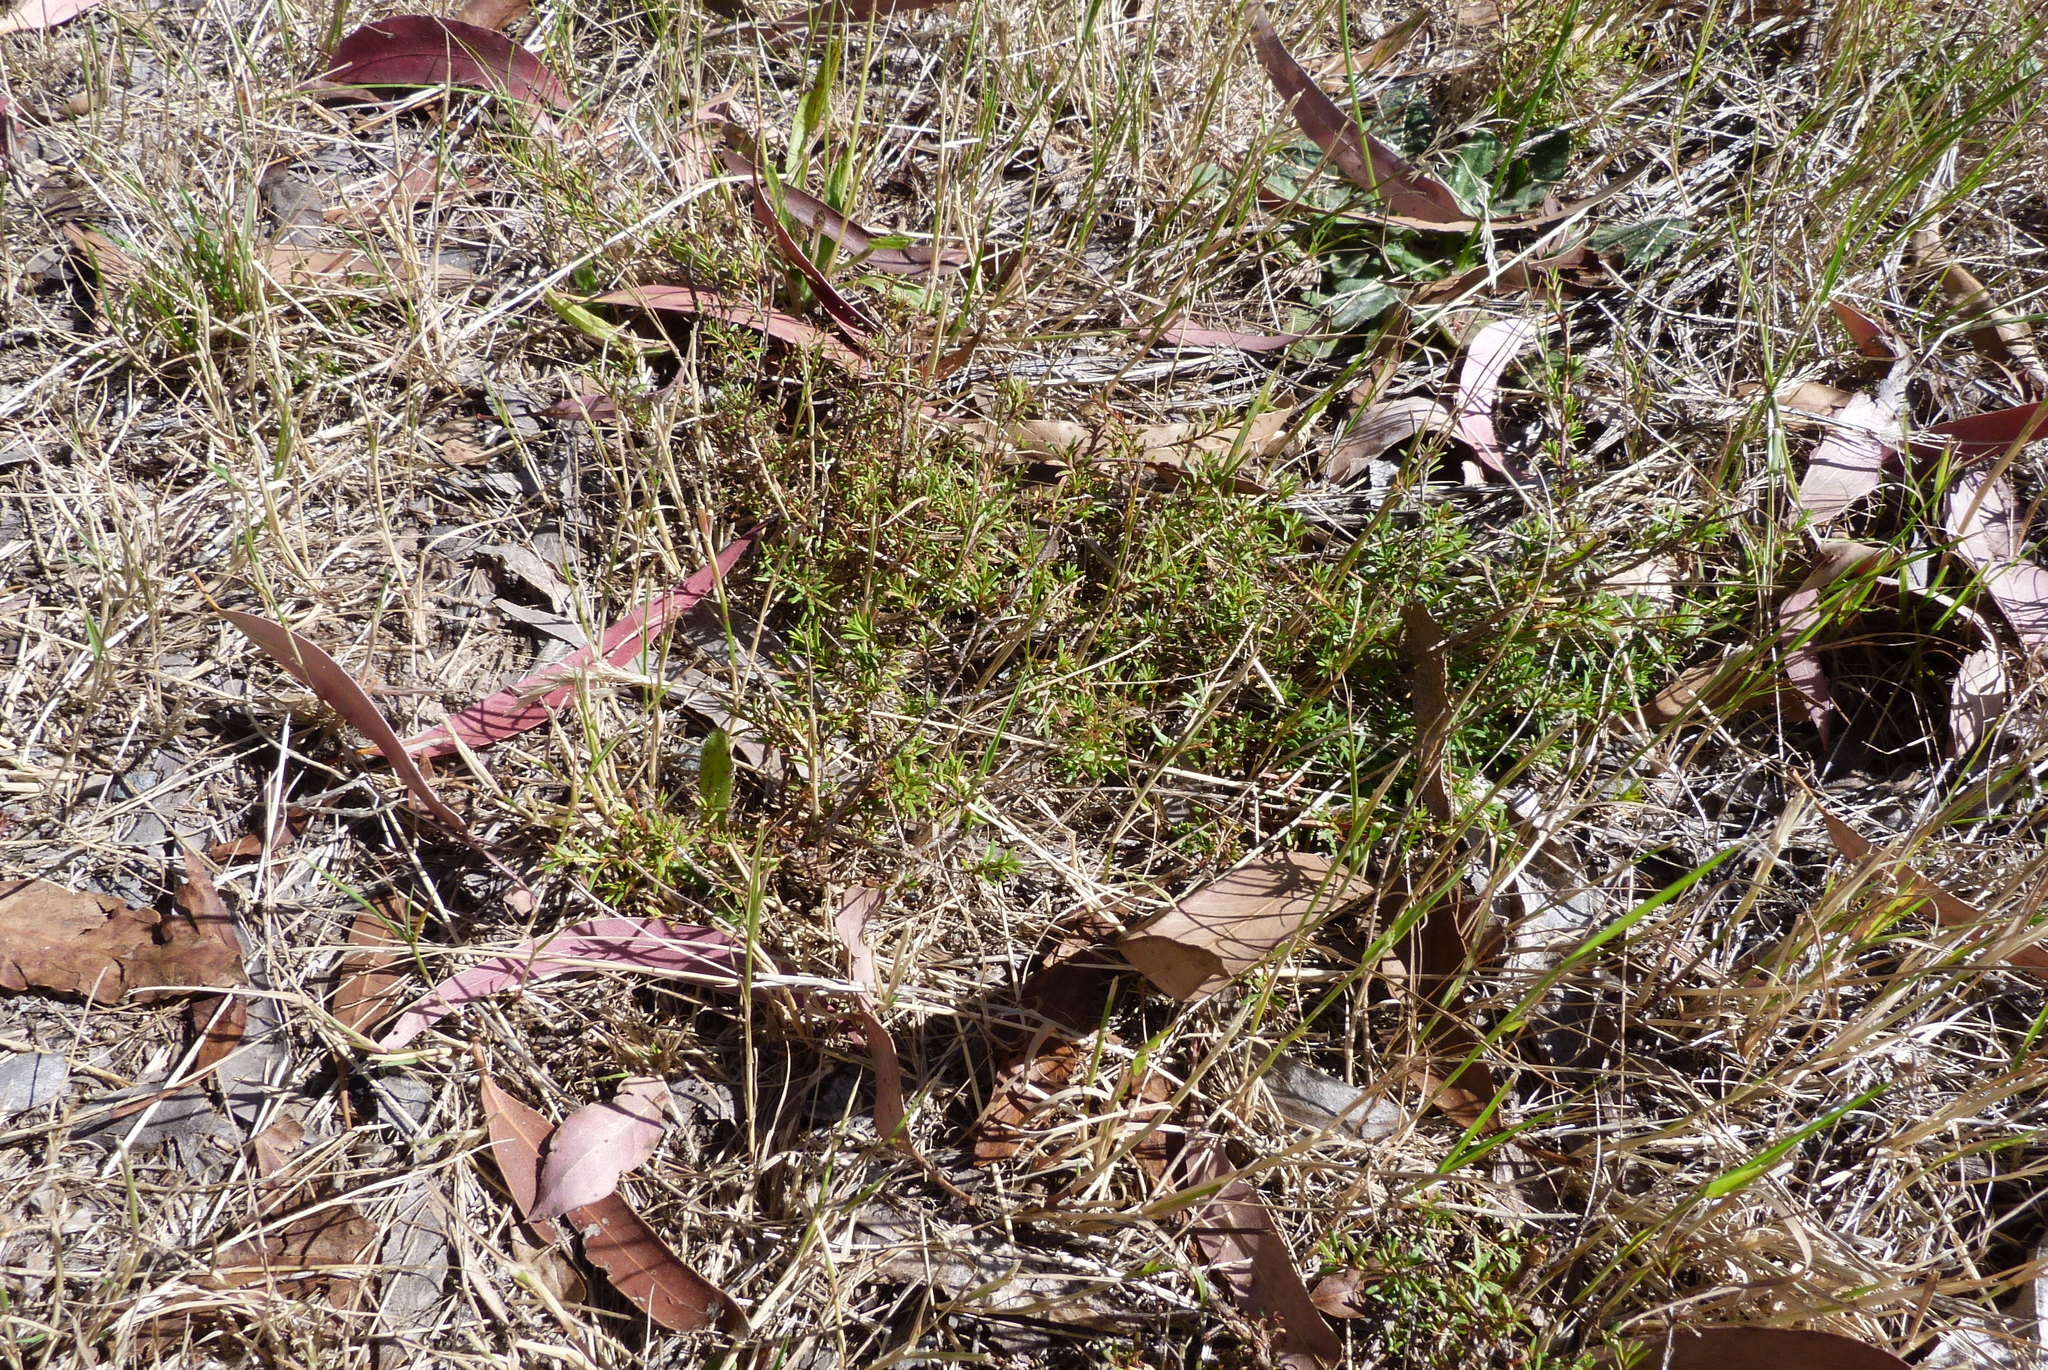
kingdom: Plantae
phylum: Tracheophyta
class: Magnoliopsida
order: Myrtales
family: Myrtaceae
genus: Kunzea
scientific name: Kunzea serotina
